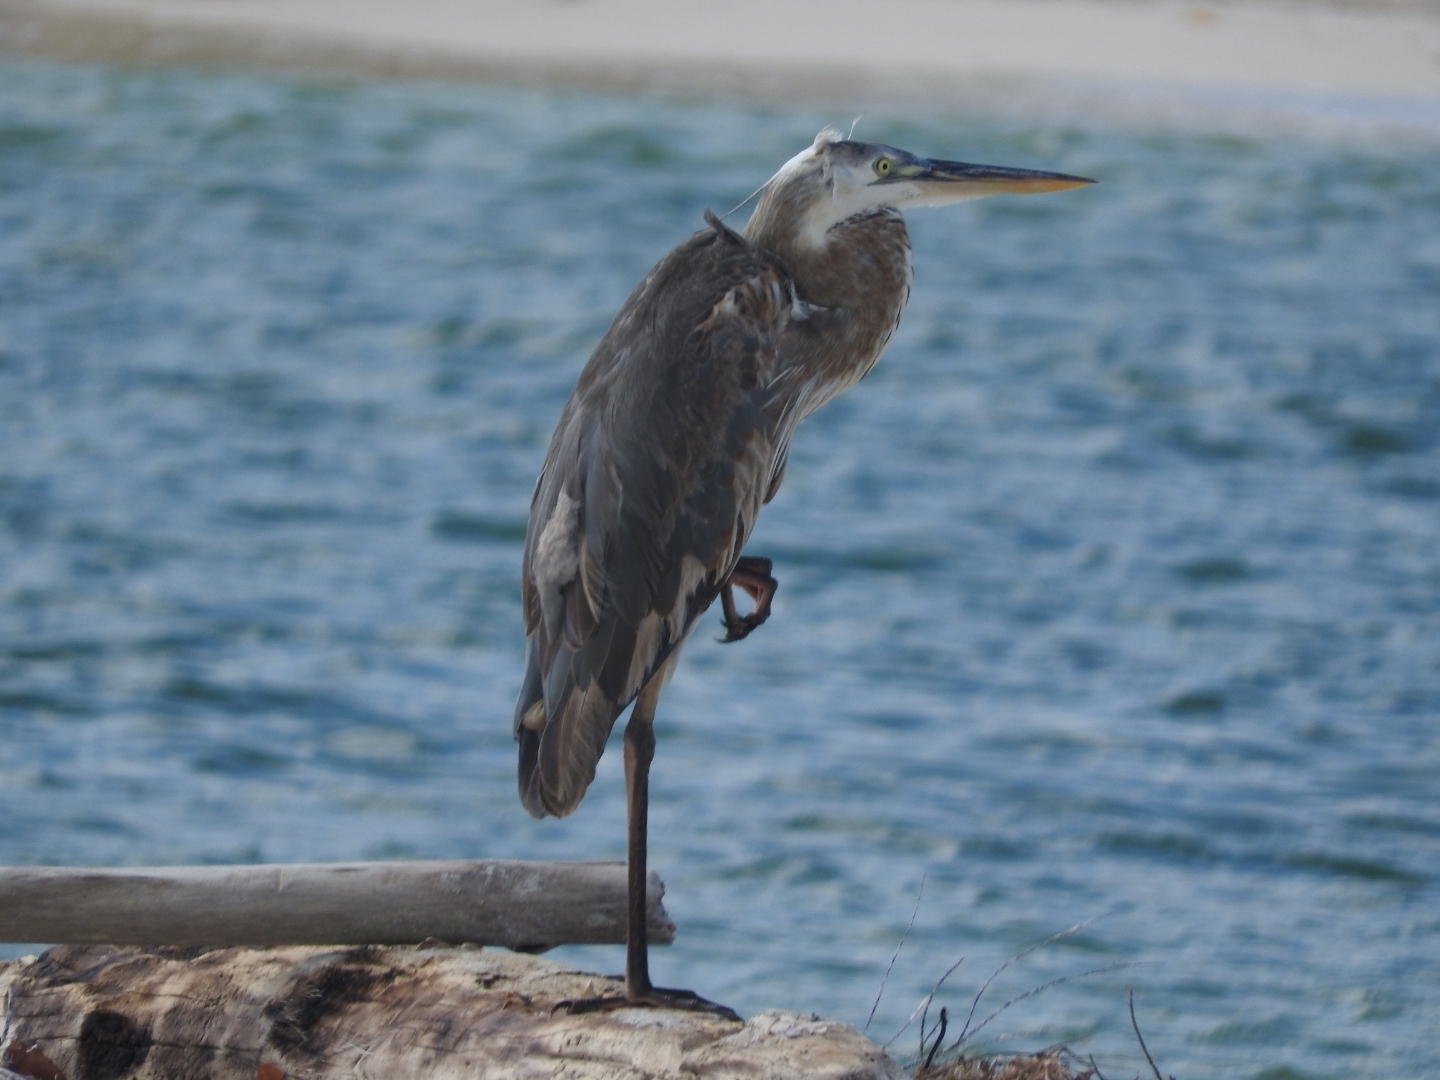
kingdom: Animalia
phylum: Chordata
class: Aves
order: Pelecaniformes
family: Ardeidae
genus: Ardea
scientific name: Ardea herodias
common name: Great blue heron
